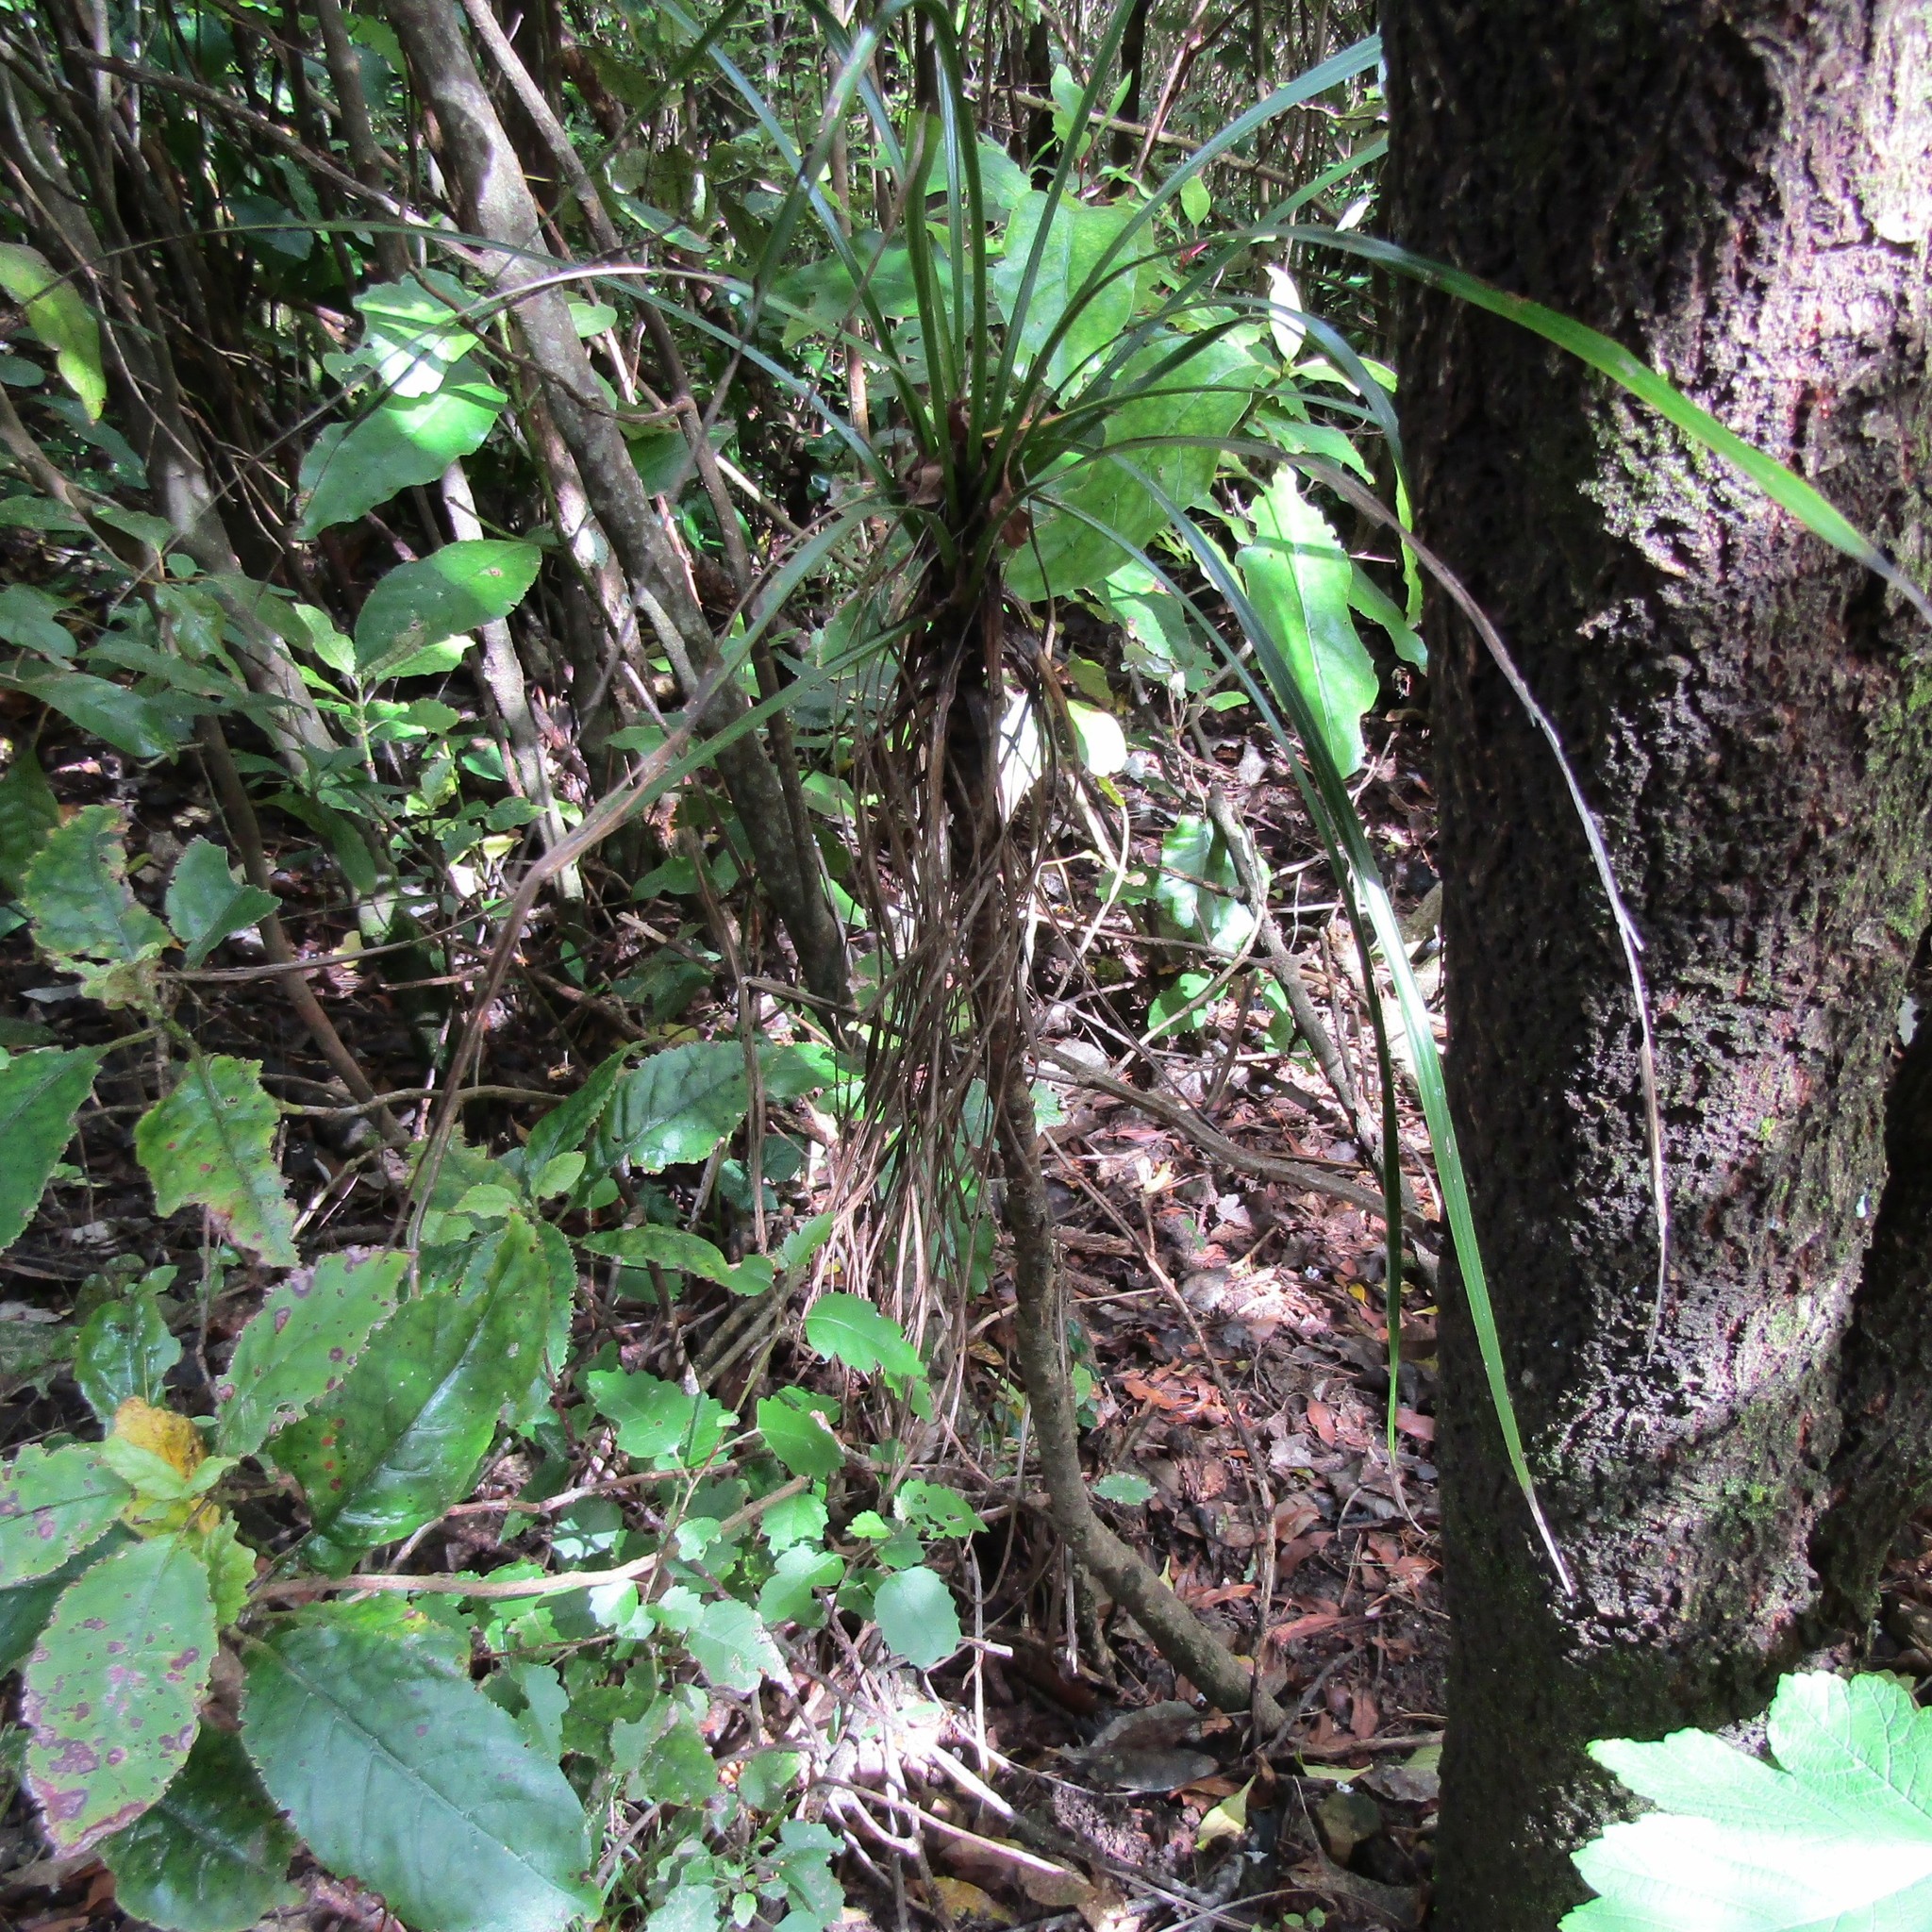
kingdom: Plantae
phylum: Tracheophyta
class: Liliopsida
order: Asparagales
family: Asparagaceae
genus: Cordyline
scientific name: Cordyline banksii
